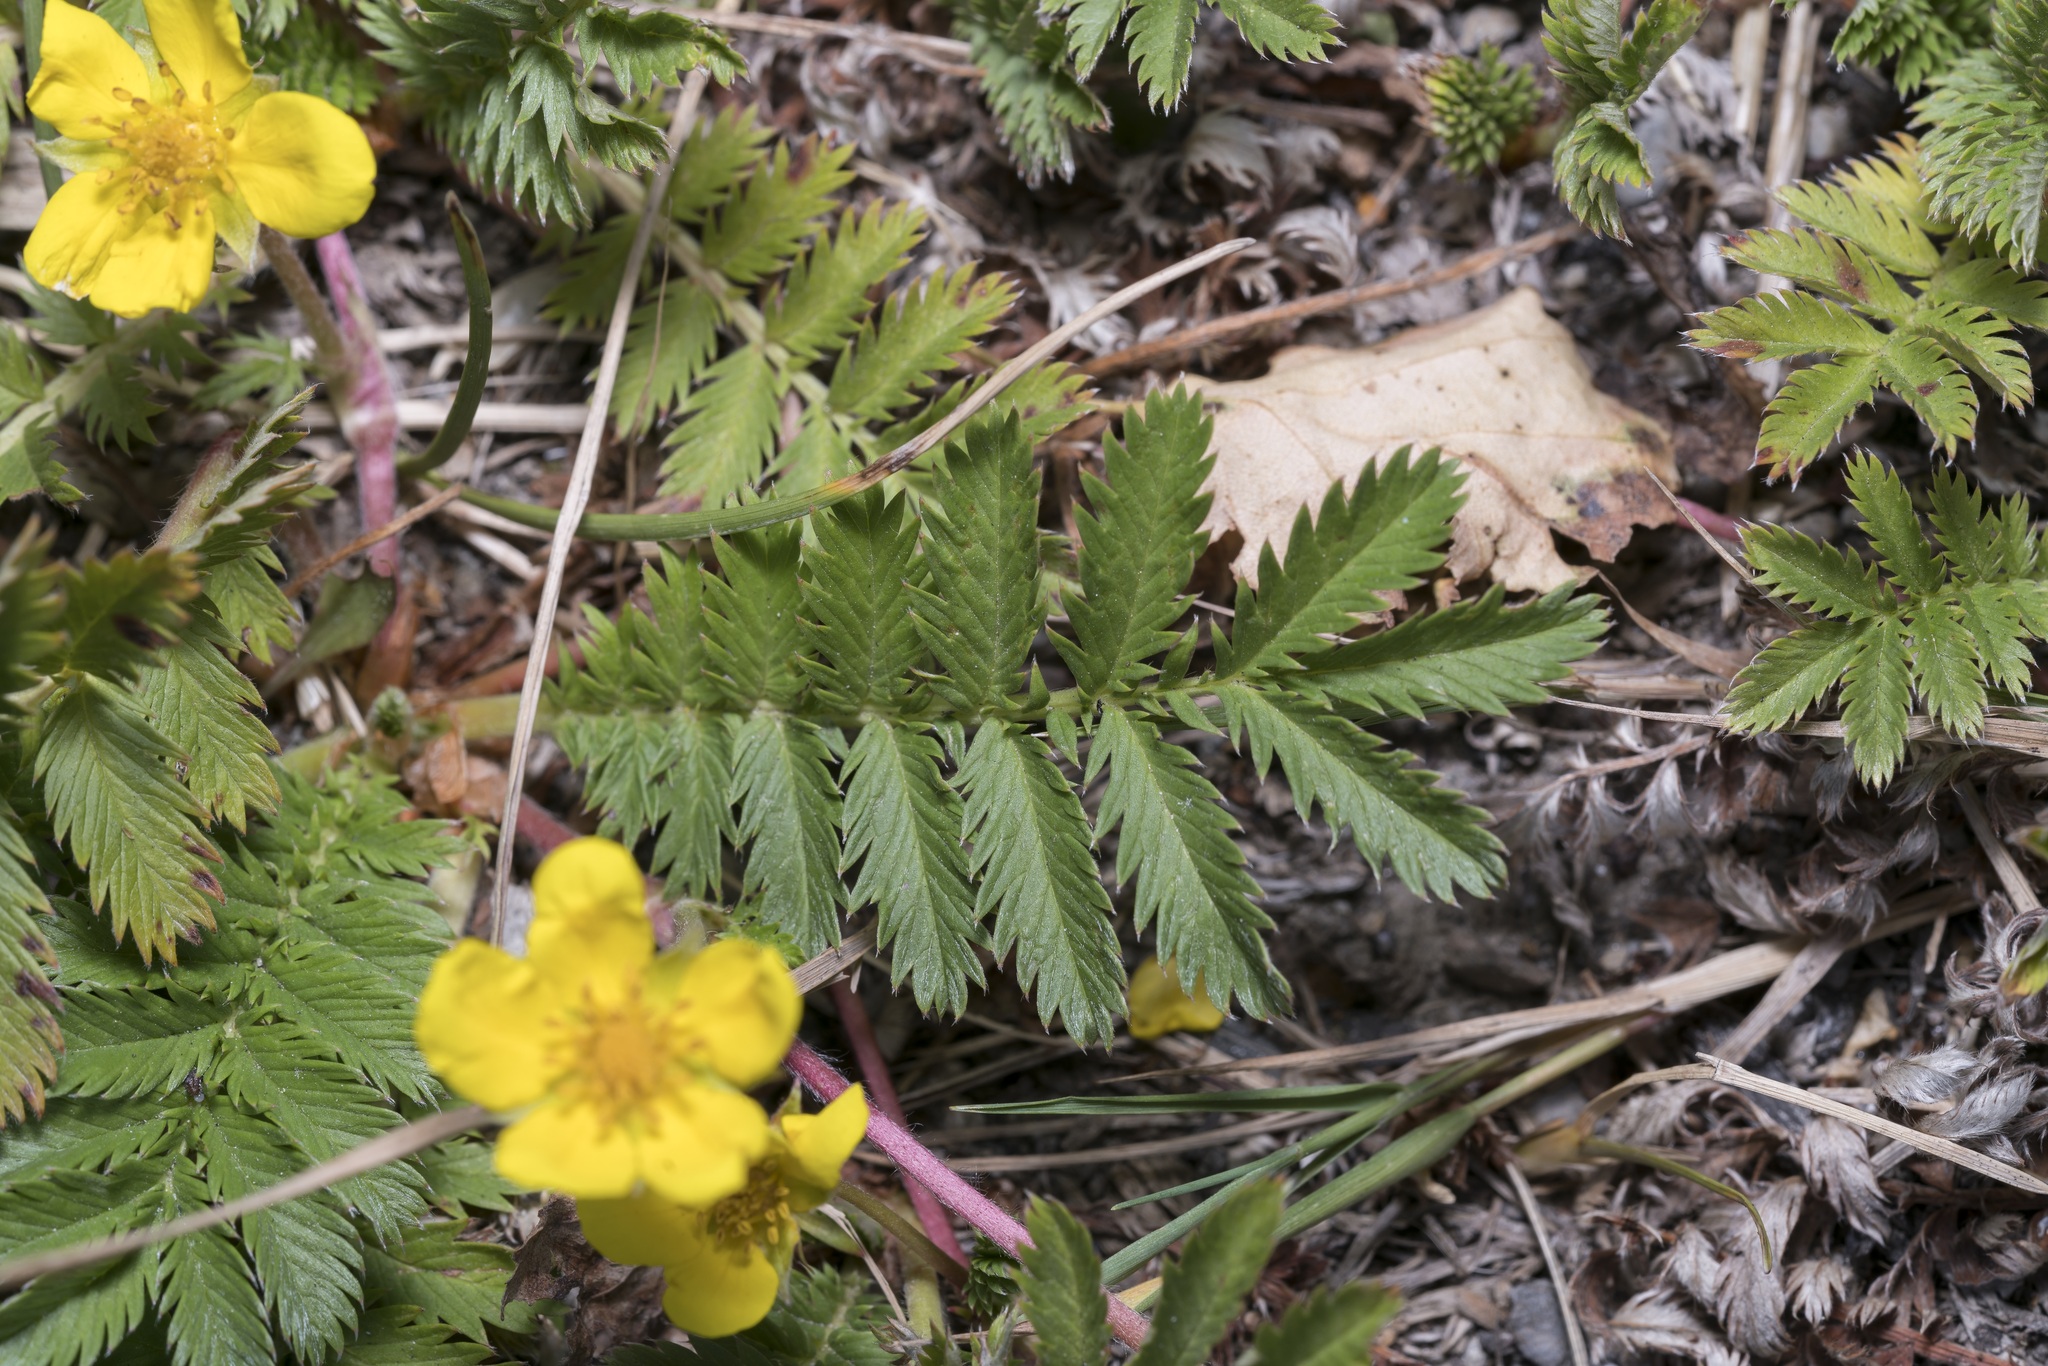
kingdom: Plantae
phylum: Tracheophyta
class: Magnoliopsida
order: Rosales
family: Rosaceae
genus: Argentina
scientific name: Argentina anserina
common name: Common silverweed
